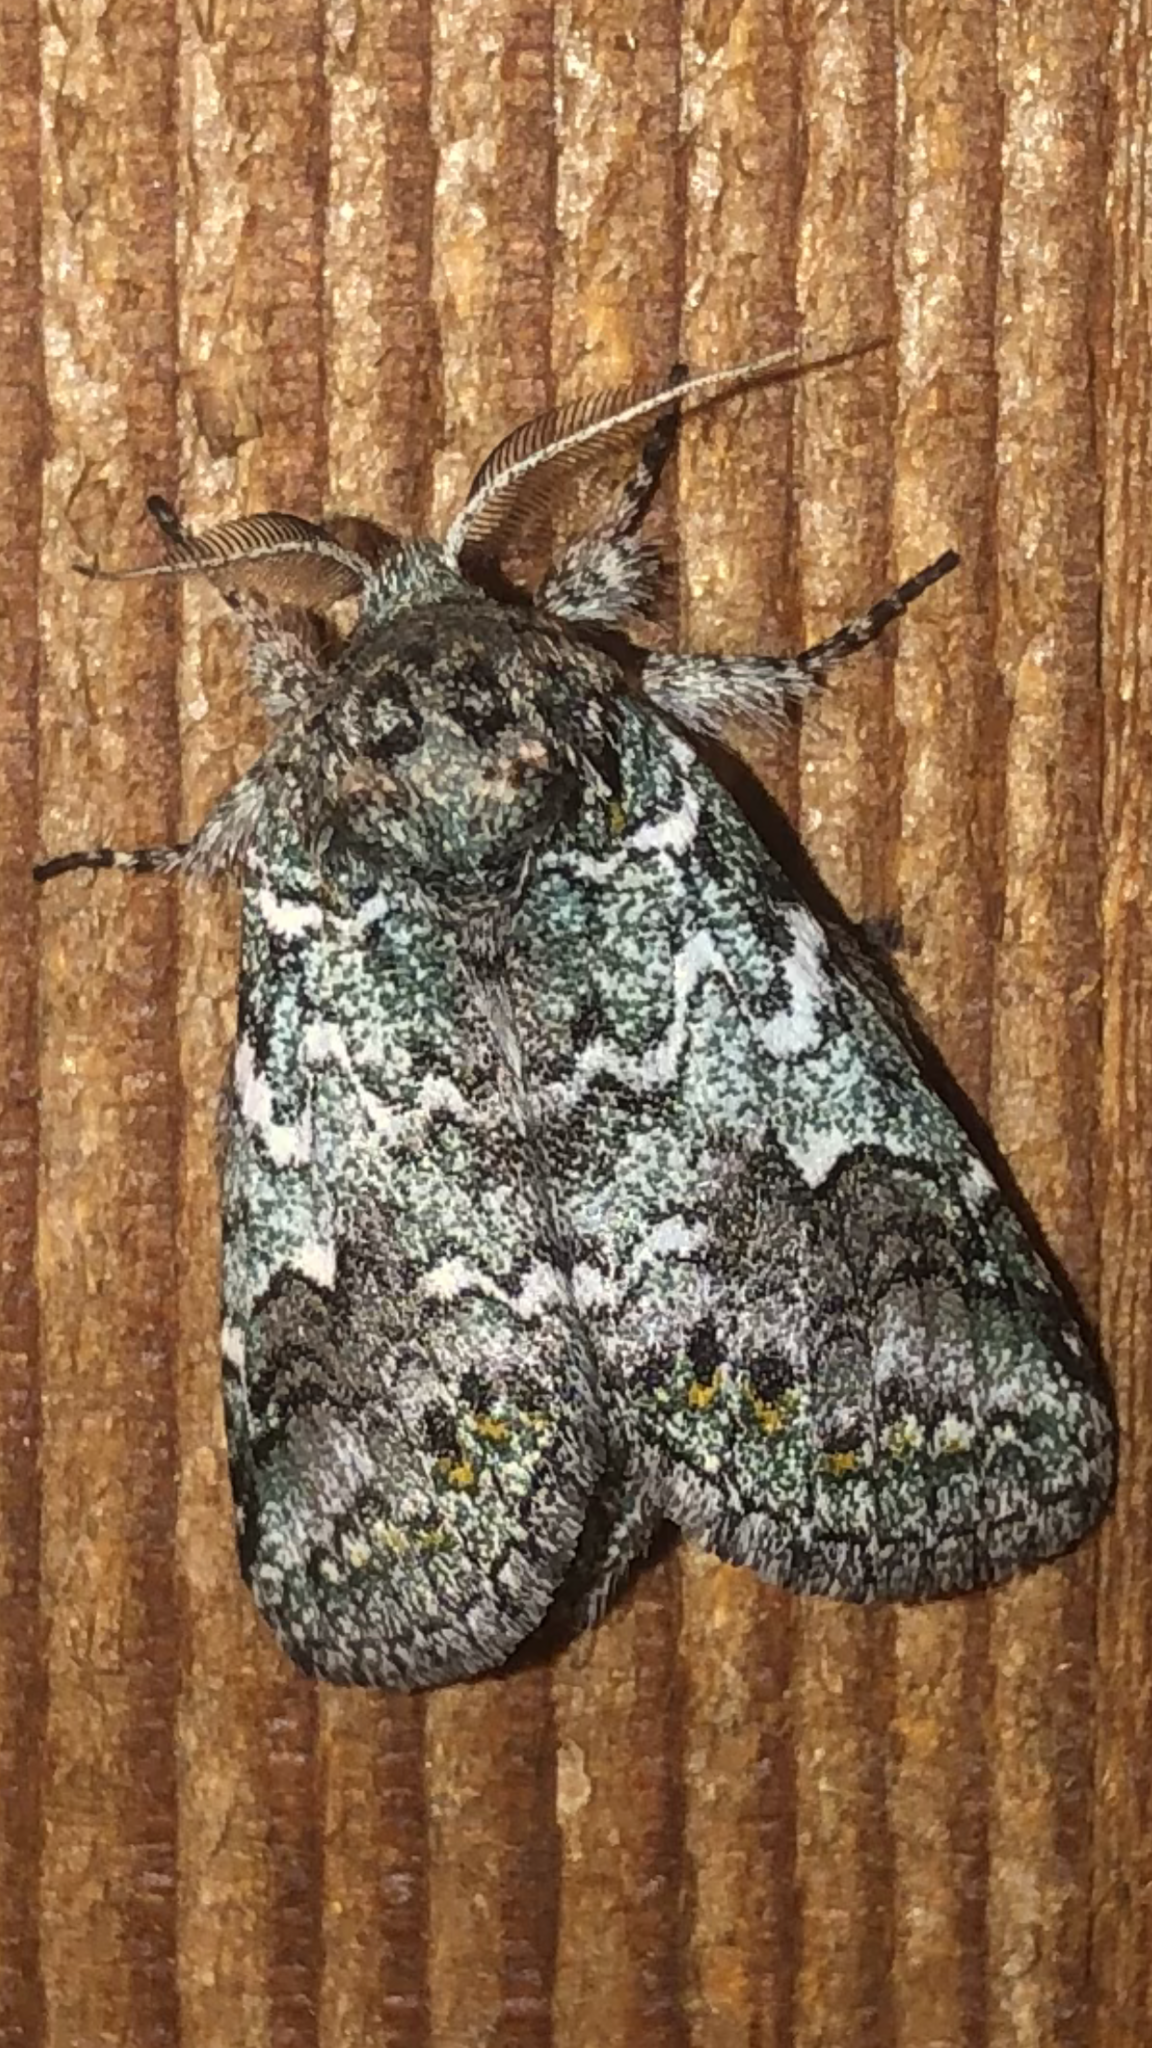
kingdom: Animalia
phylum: Arthropoda
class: Insecta
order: Lepidoptera
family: Notodontidae
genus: Litodonta
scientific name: Litodonta hydromeli
